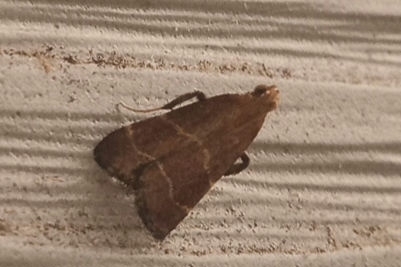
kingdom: Animalia
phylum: Arthropoda
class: Insecta
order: Lepidoptera
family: Pyralidae
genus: Arta
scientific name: Arta statalis
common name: Posturing arta moth
